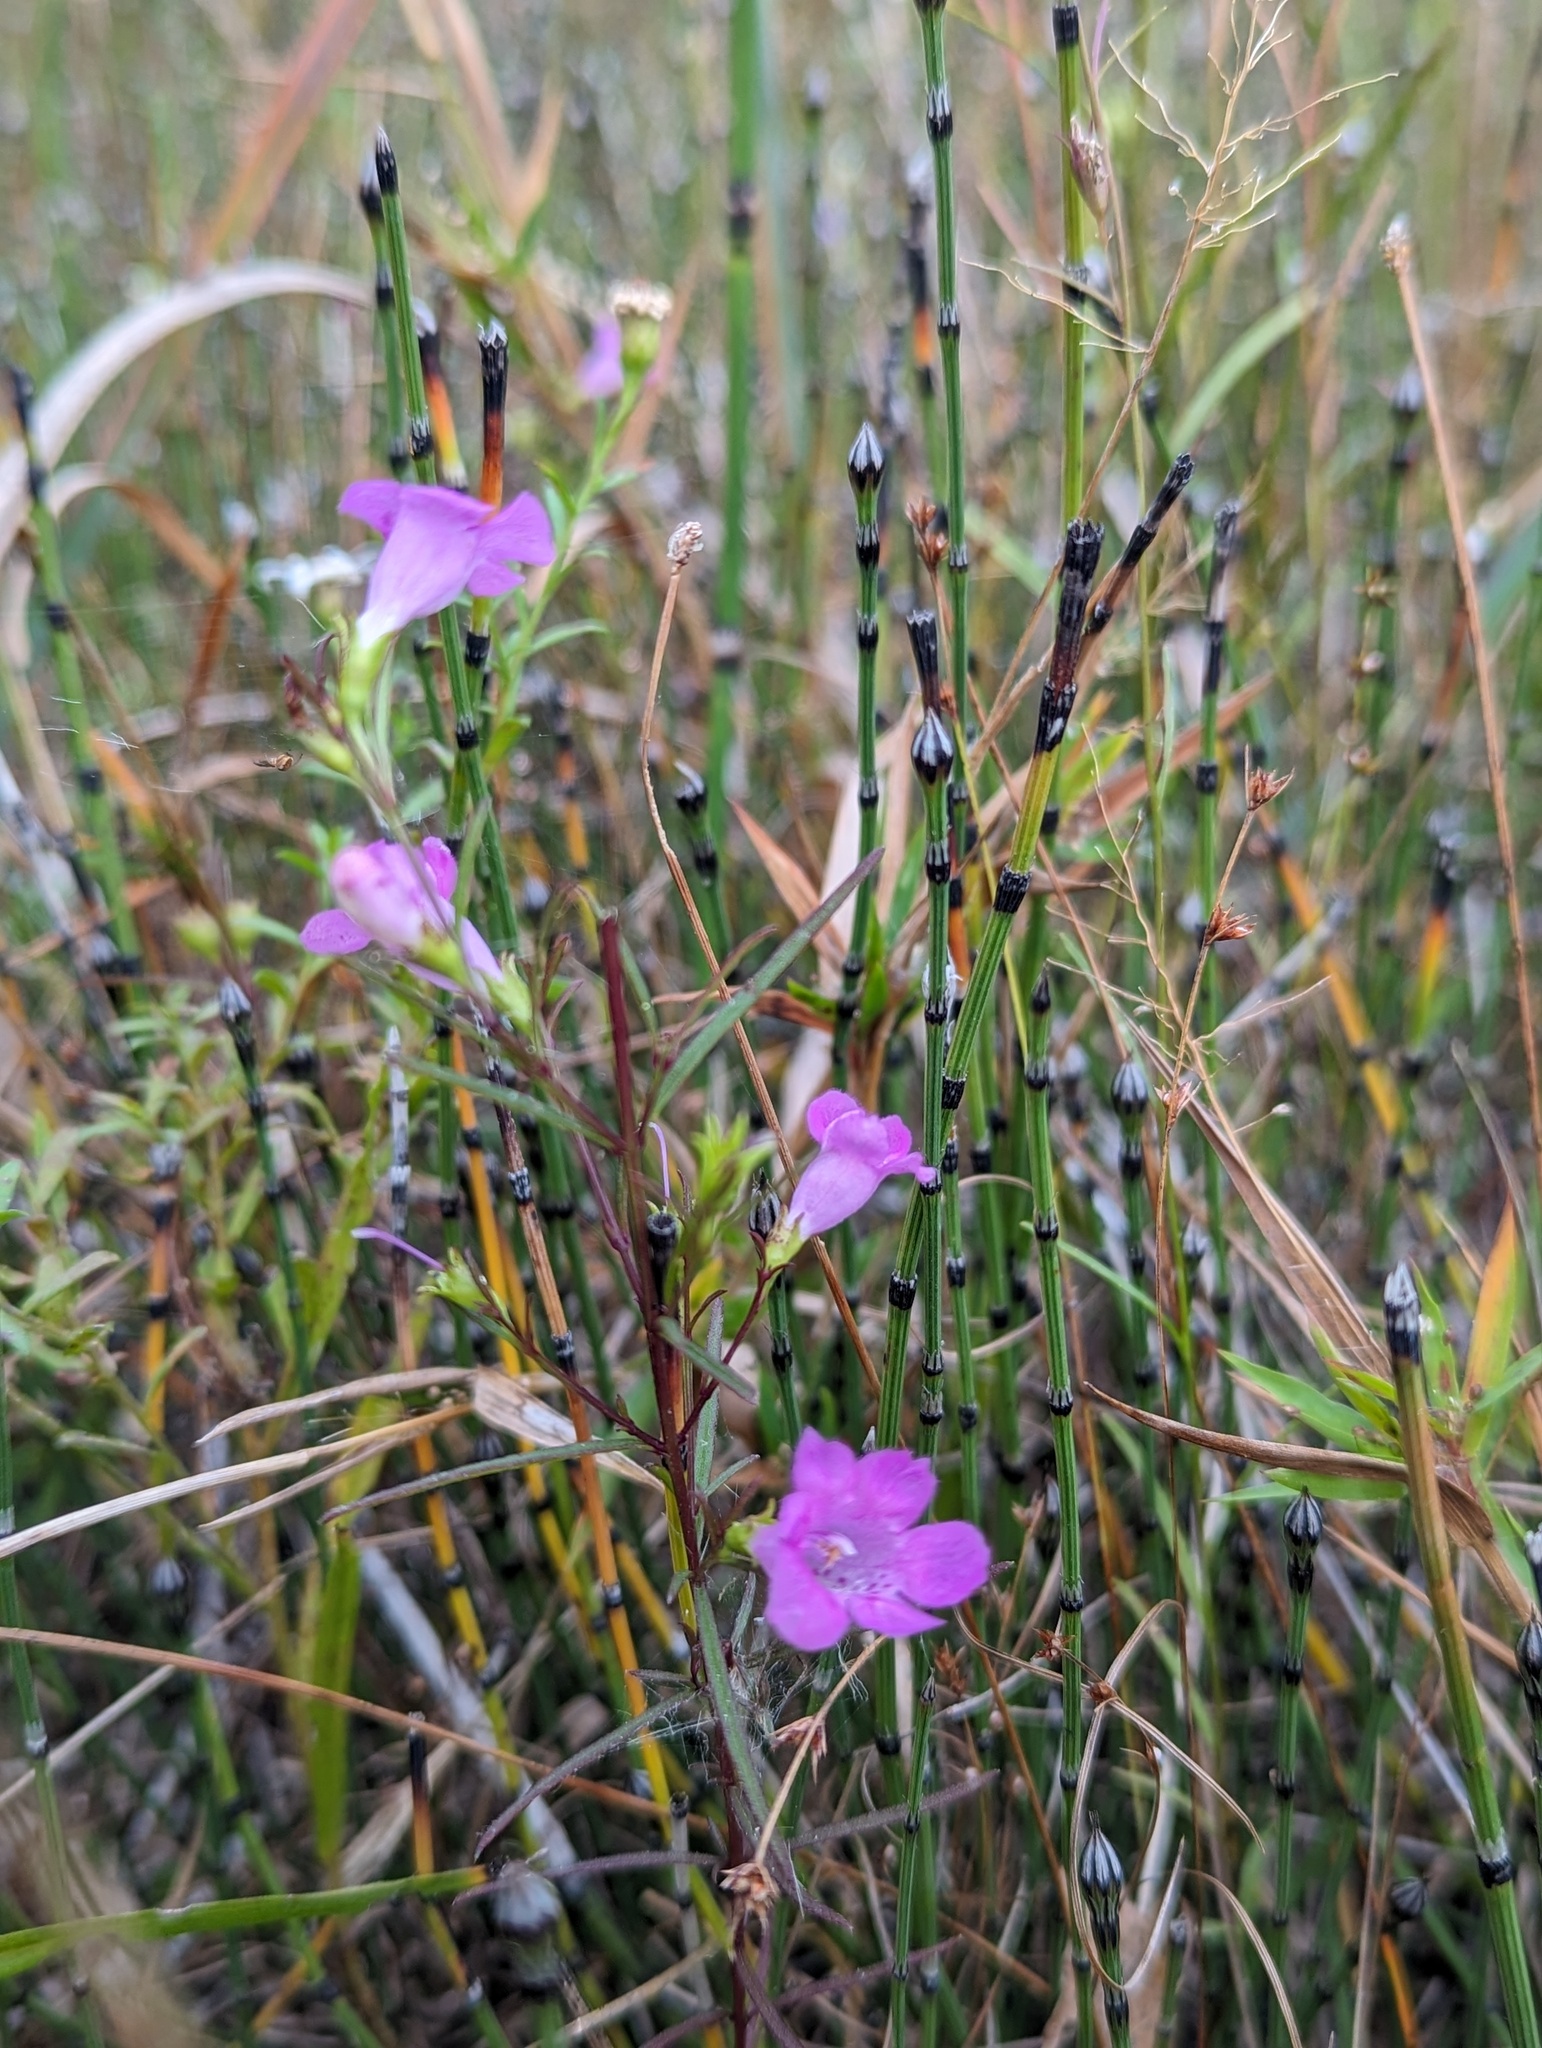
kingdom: Plantae
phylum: Tracheophyta
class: Magnoliopsida
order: Lamiales
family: Orobanchaceae
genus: Agalinis
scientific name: Agalinis purpurea
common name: Purple false foxglove
